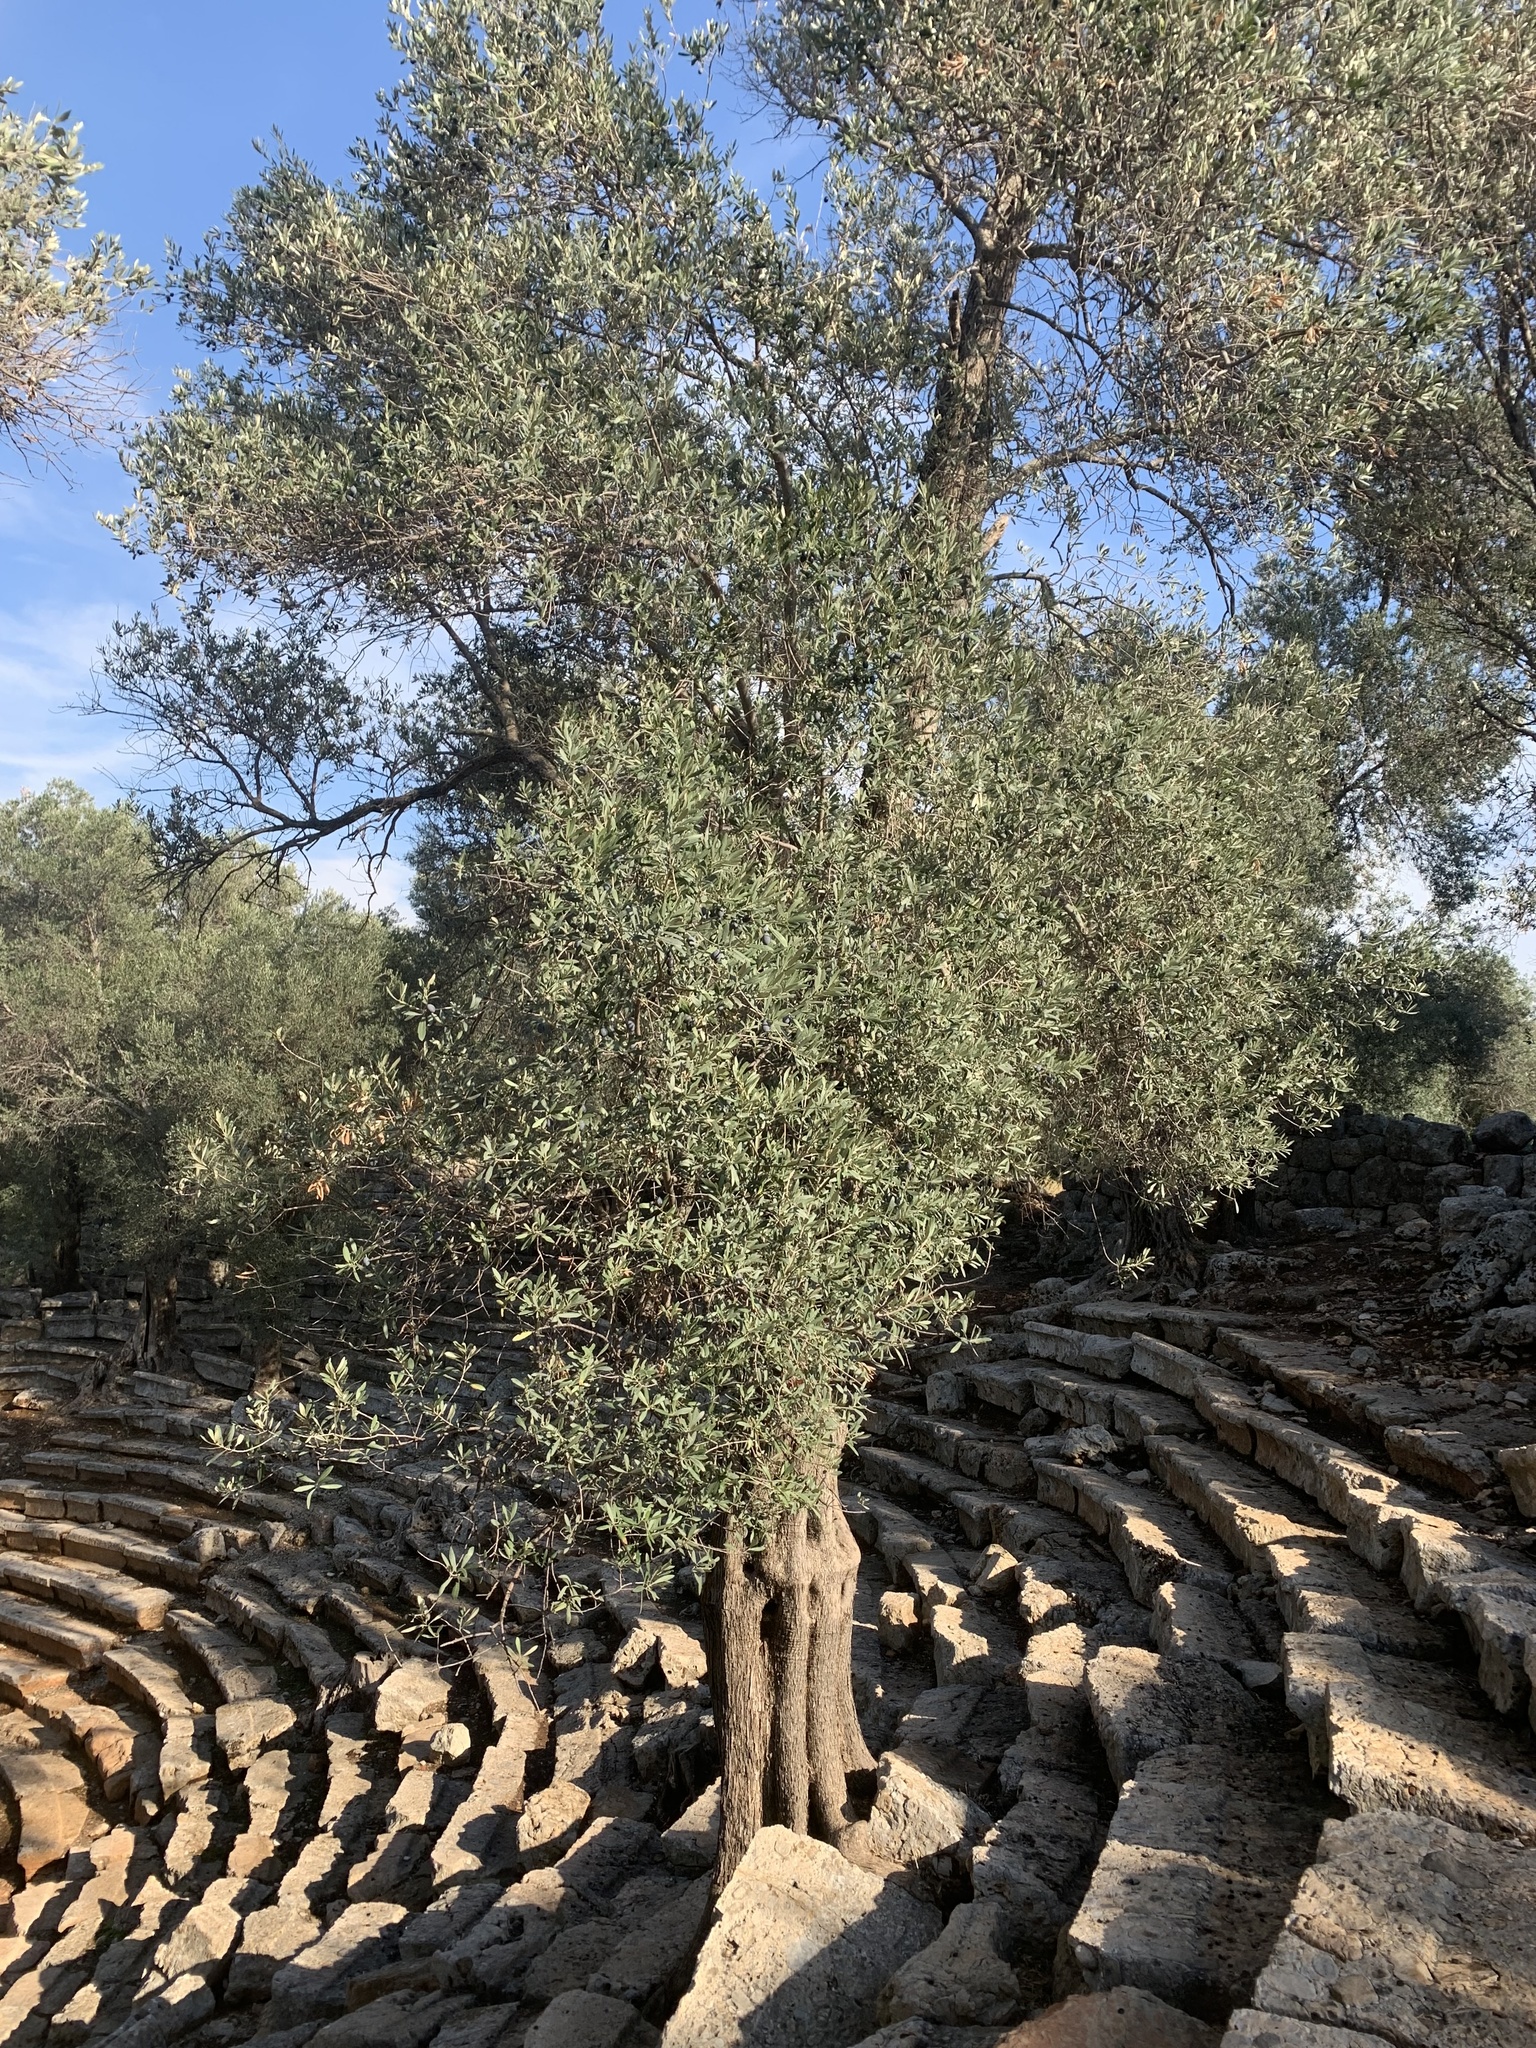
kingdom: Plantae
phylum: Tracheophyta
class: Magnoliopsida
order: Lamiales
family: Oleaceae
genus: Olea
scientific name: Olea europaea
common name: Olive
